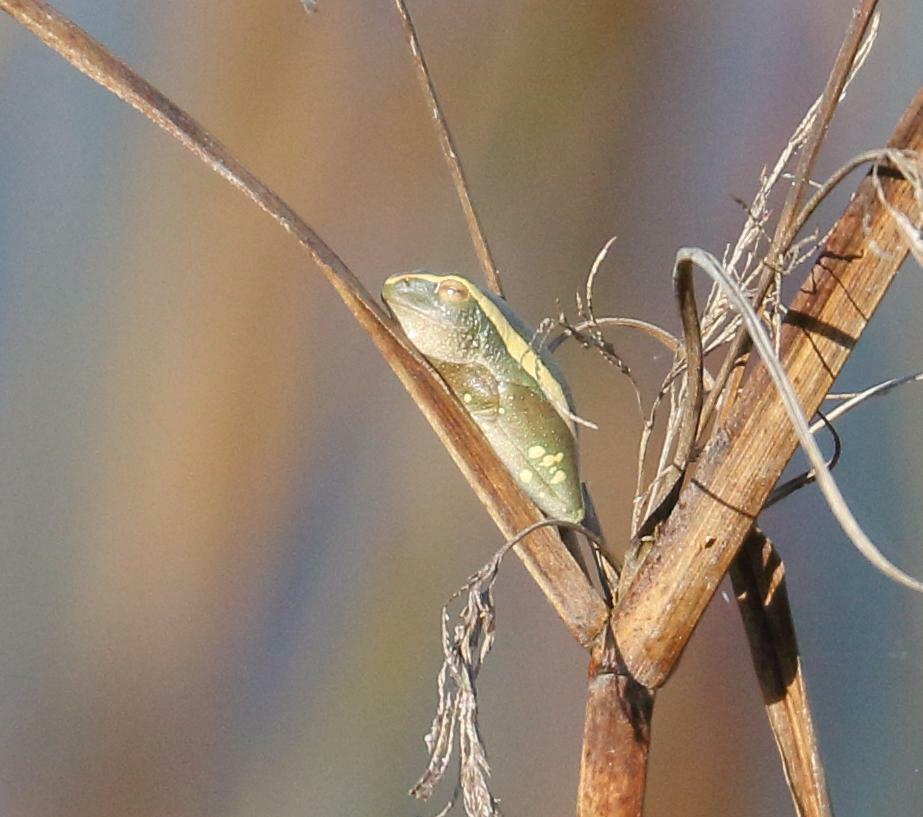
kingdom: Animalia
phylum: Chordata
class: Amphibia
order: Anura
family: Hyperoliidae
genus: Hyperolius
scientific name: Hyperolius semidiscus
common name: Yellow-striped reed frog
